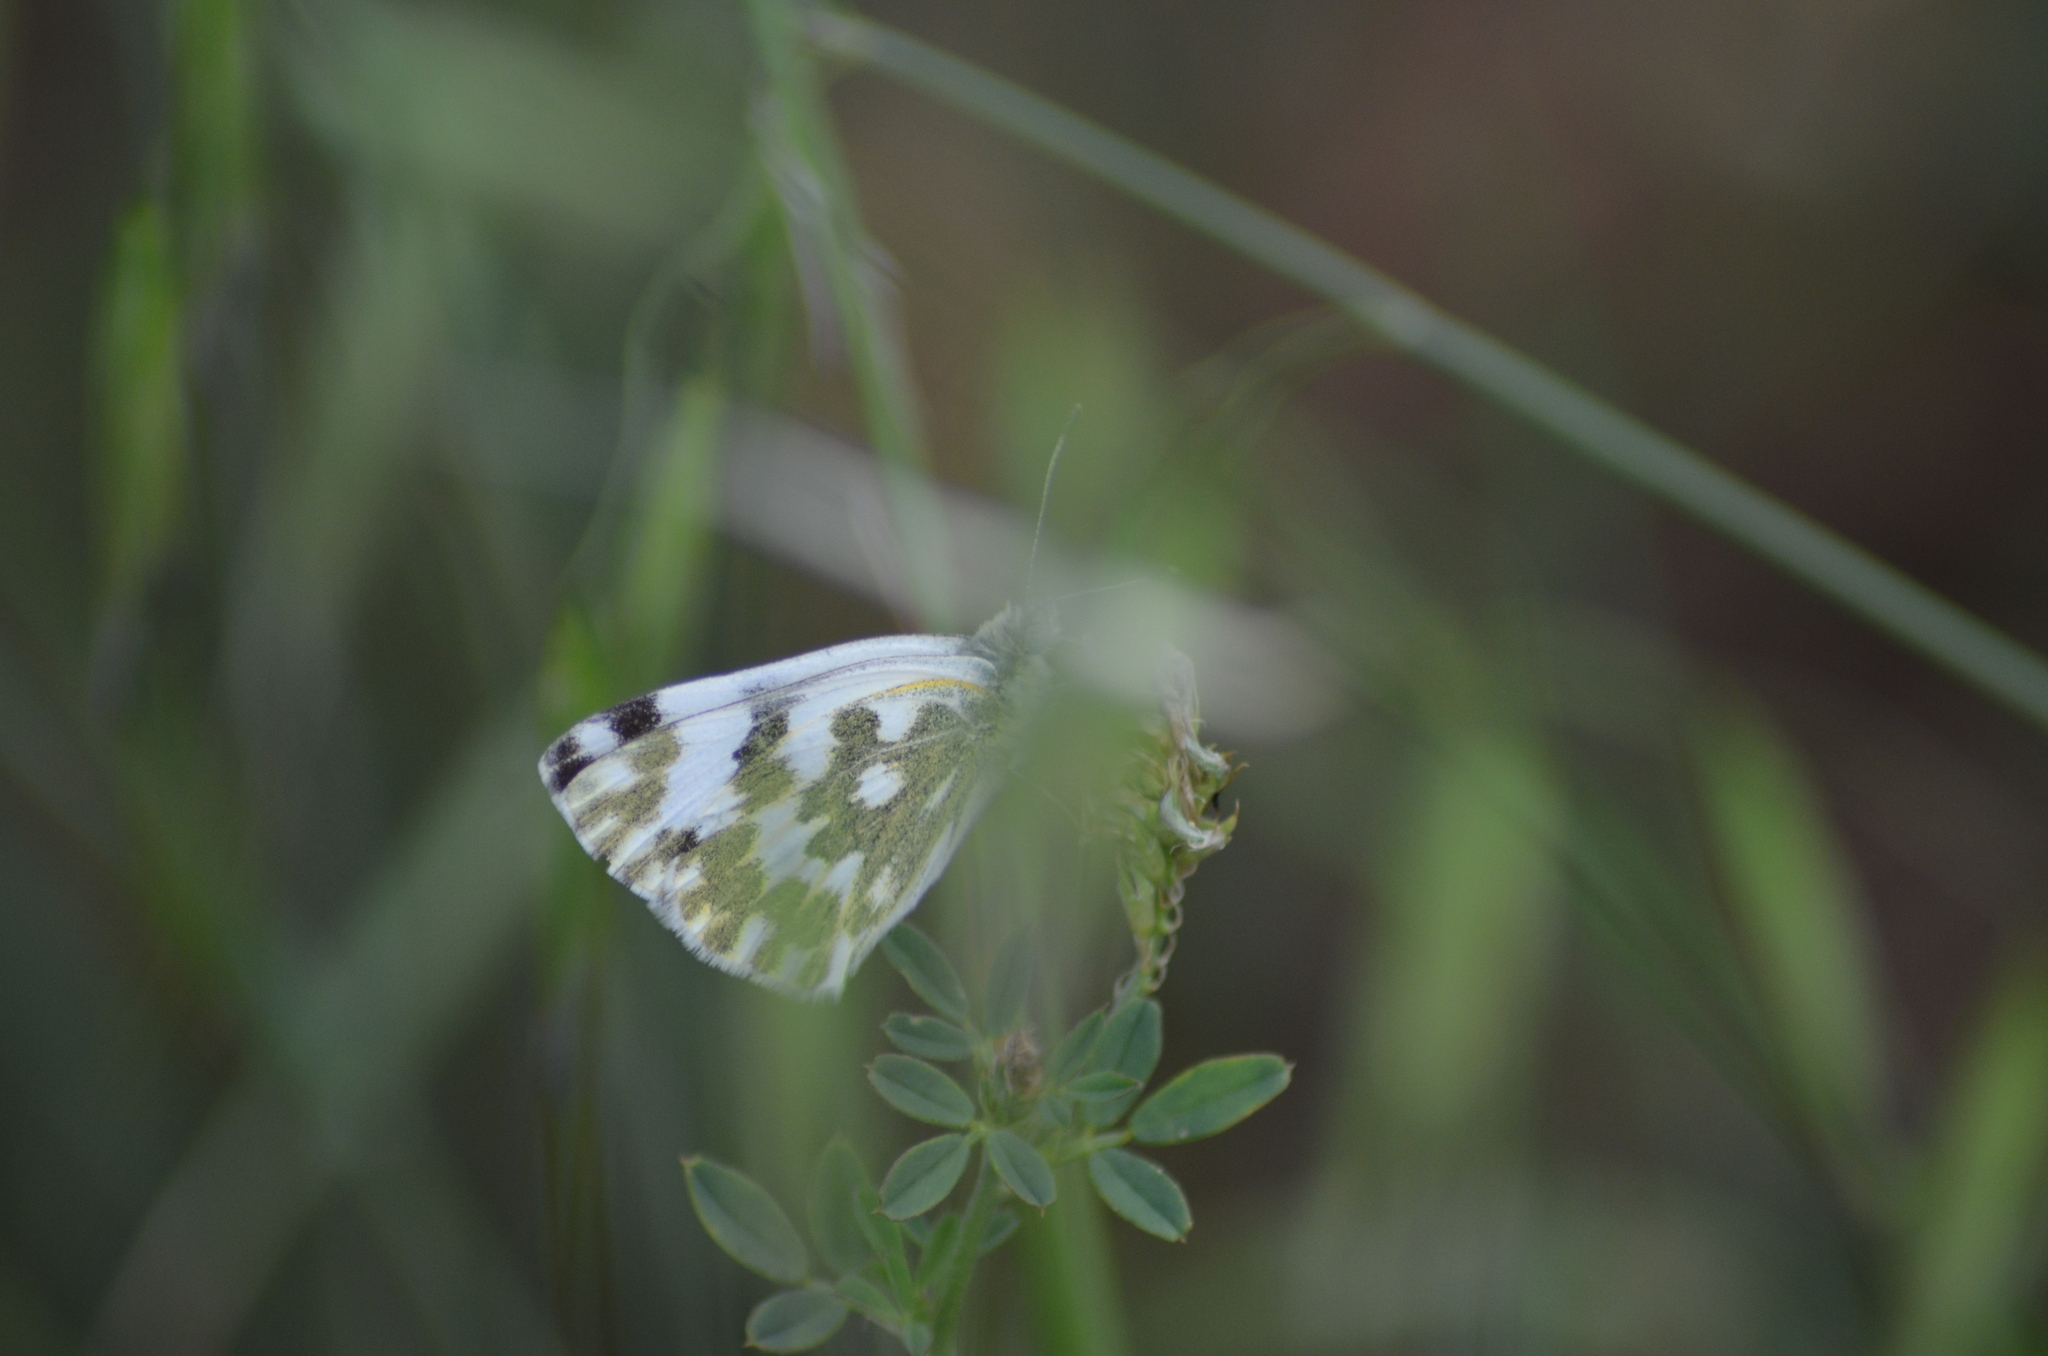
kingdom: Animalia
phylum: Arthropoda
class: Insecta
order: Lepidoptera
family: Pieridae
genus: Pontia
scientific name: Pontia daplidice
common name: Bath white
